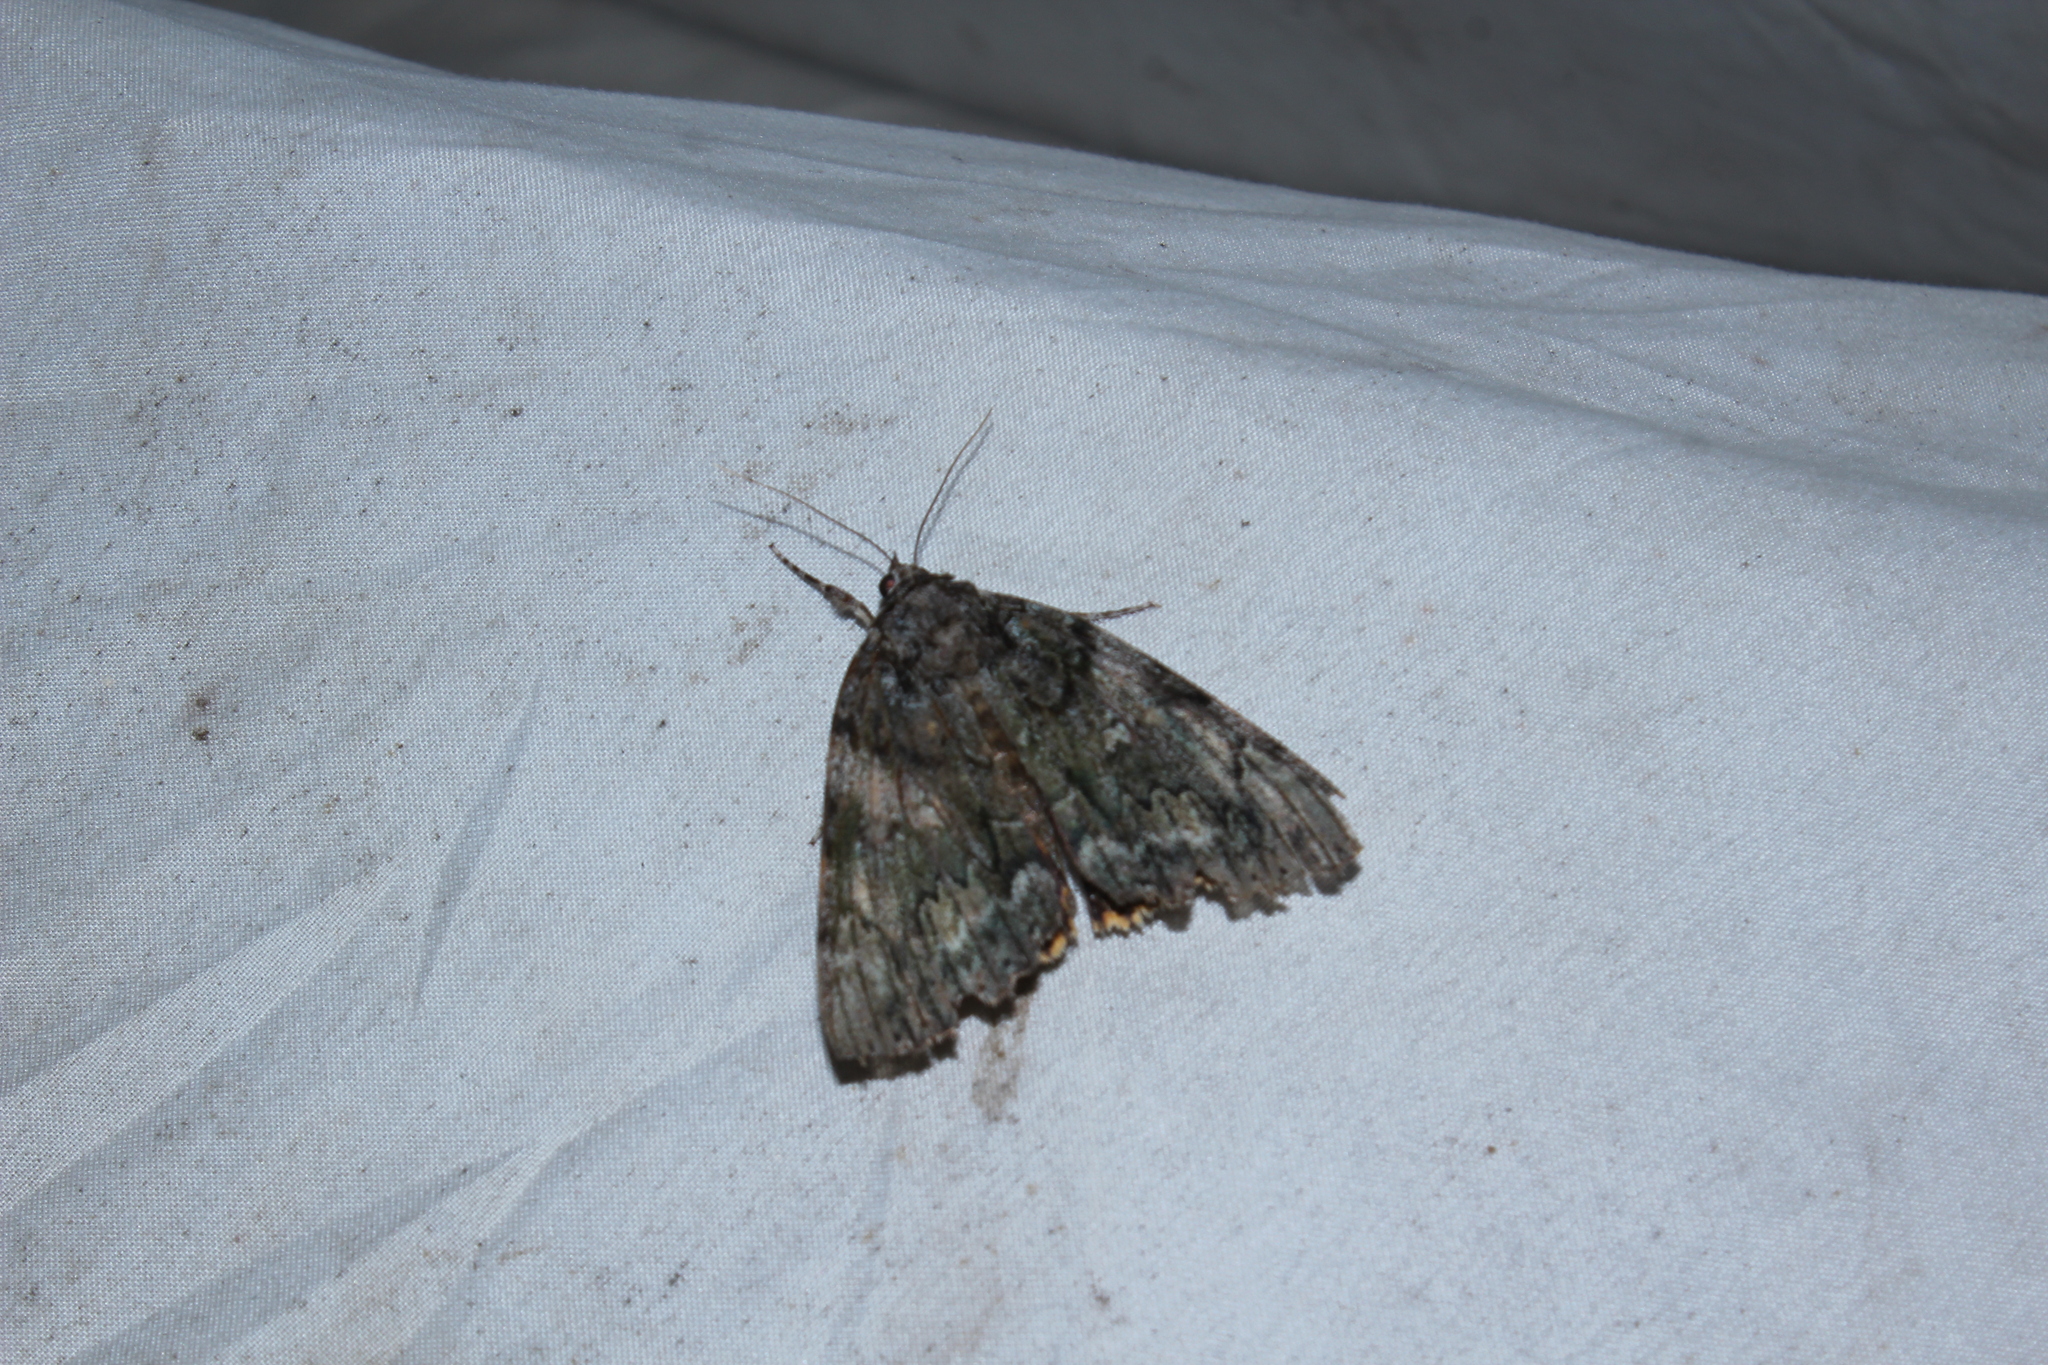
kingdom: Animalia
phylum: Arthropoda
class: Insecta
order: Lepidoptera
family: Erebidae
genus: Catocala
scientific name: Catocala palaeogama
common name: Oldwife underwing
